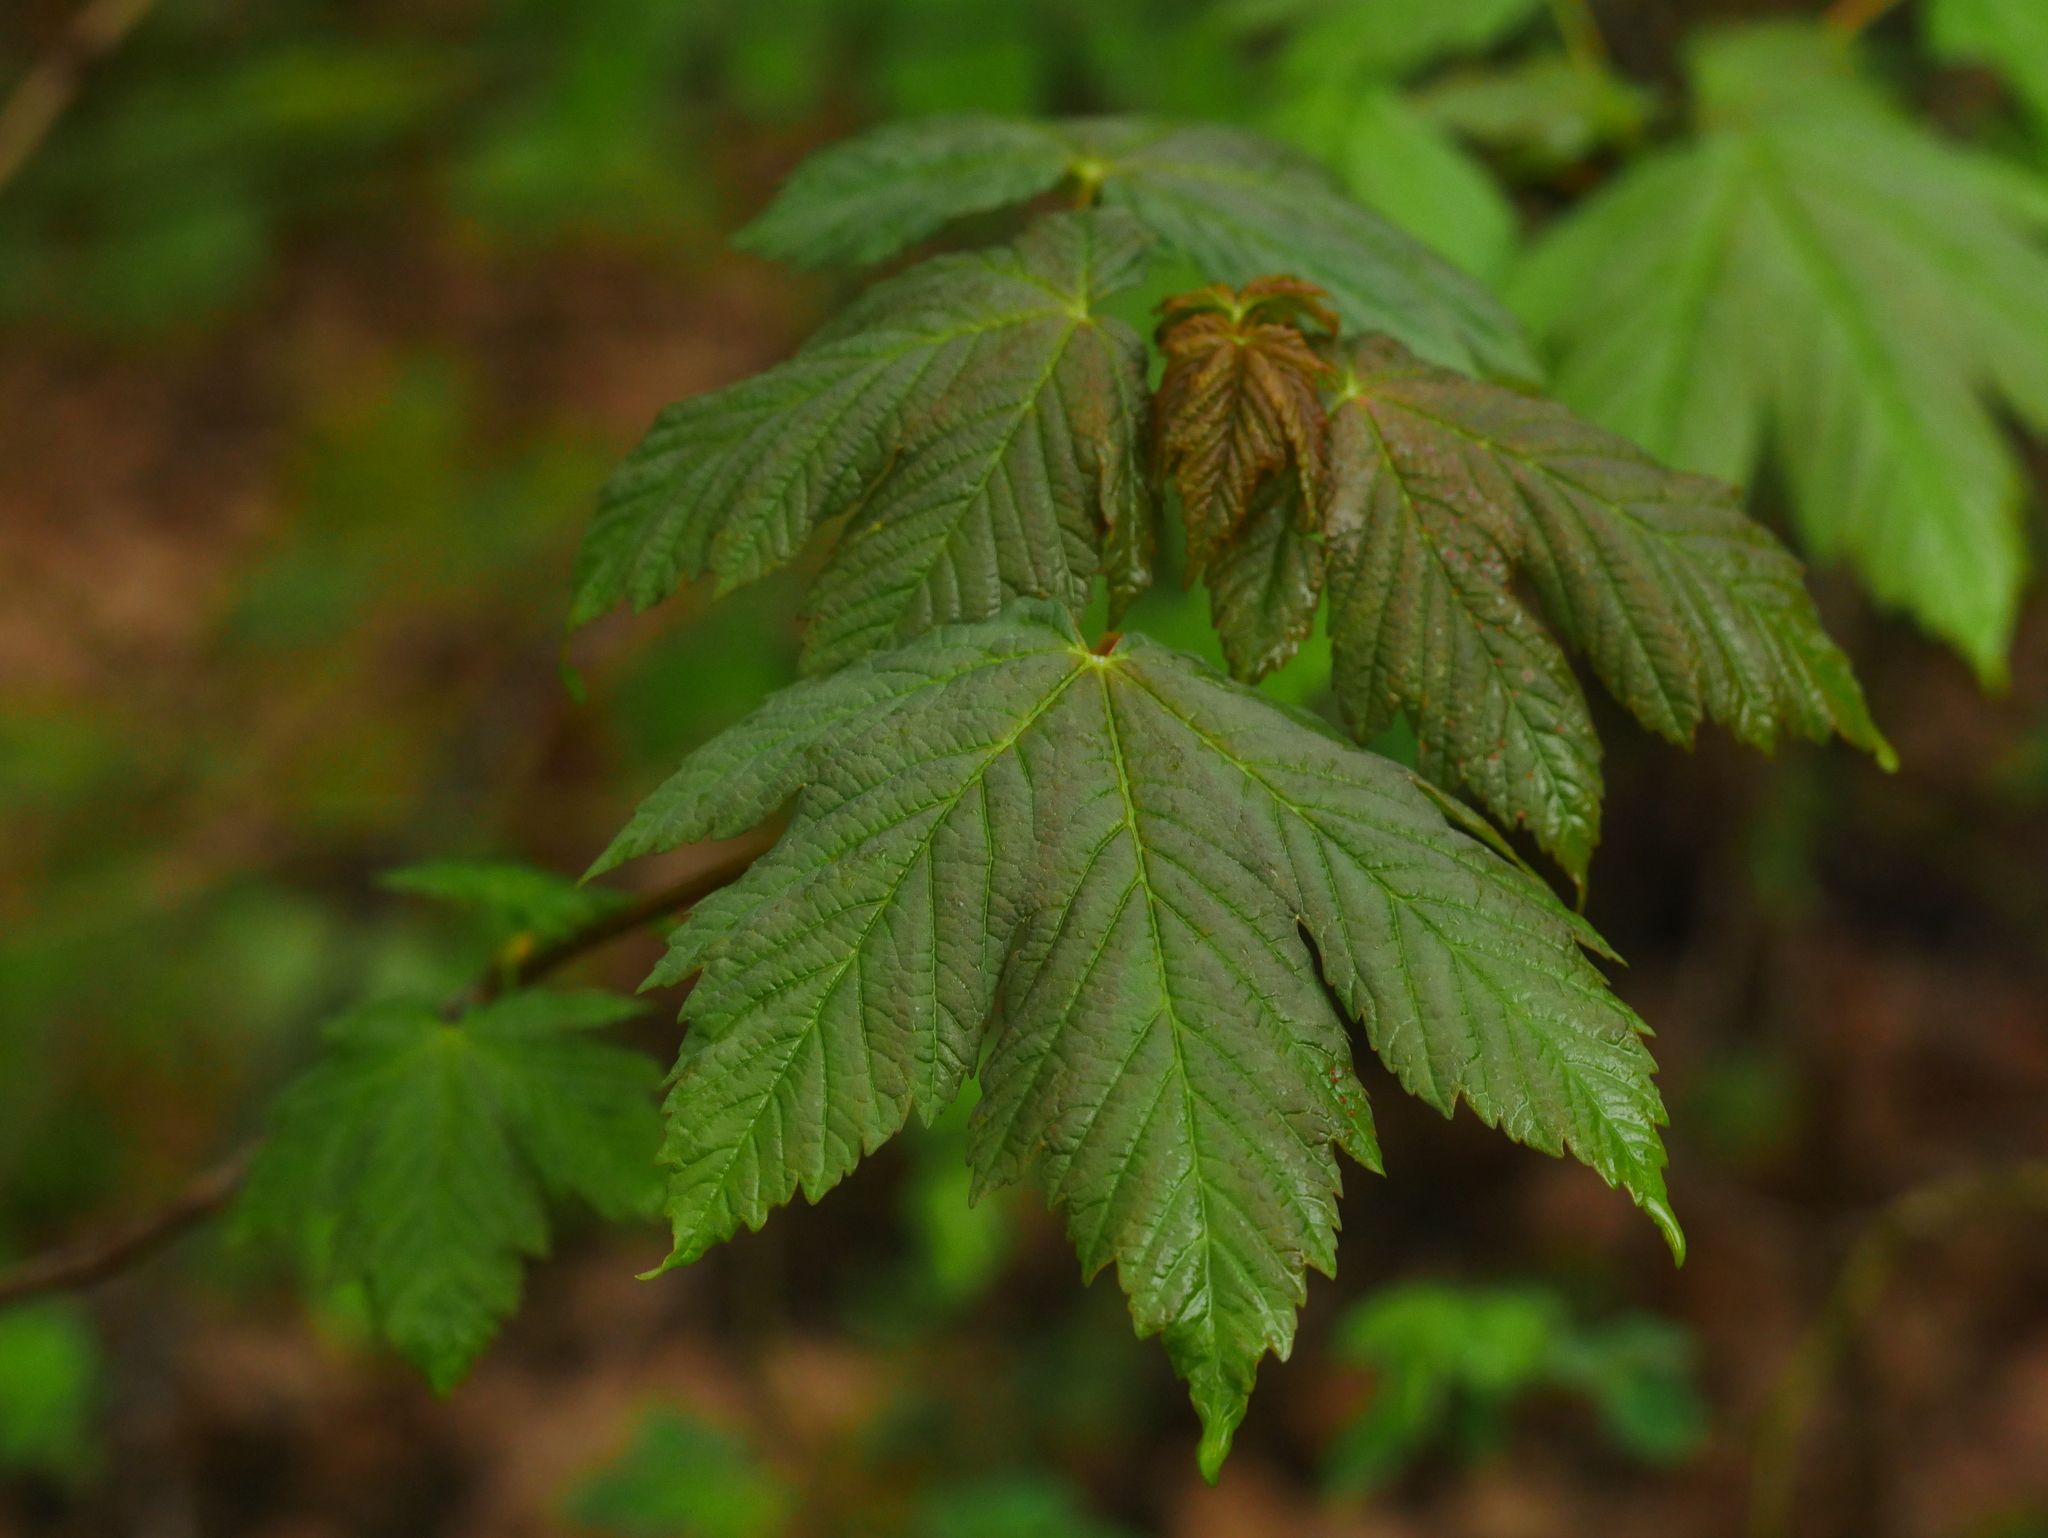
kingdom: Plantae
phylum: Tracheophyta
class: Magnoliopsida
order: Sapindales
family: Sapindaceae
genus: Acer
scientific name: Acer pseudoplatanus
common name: Sycamore
